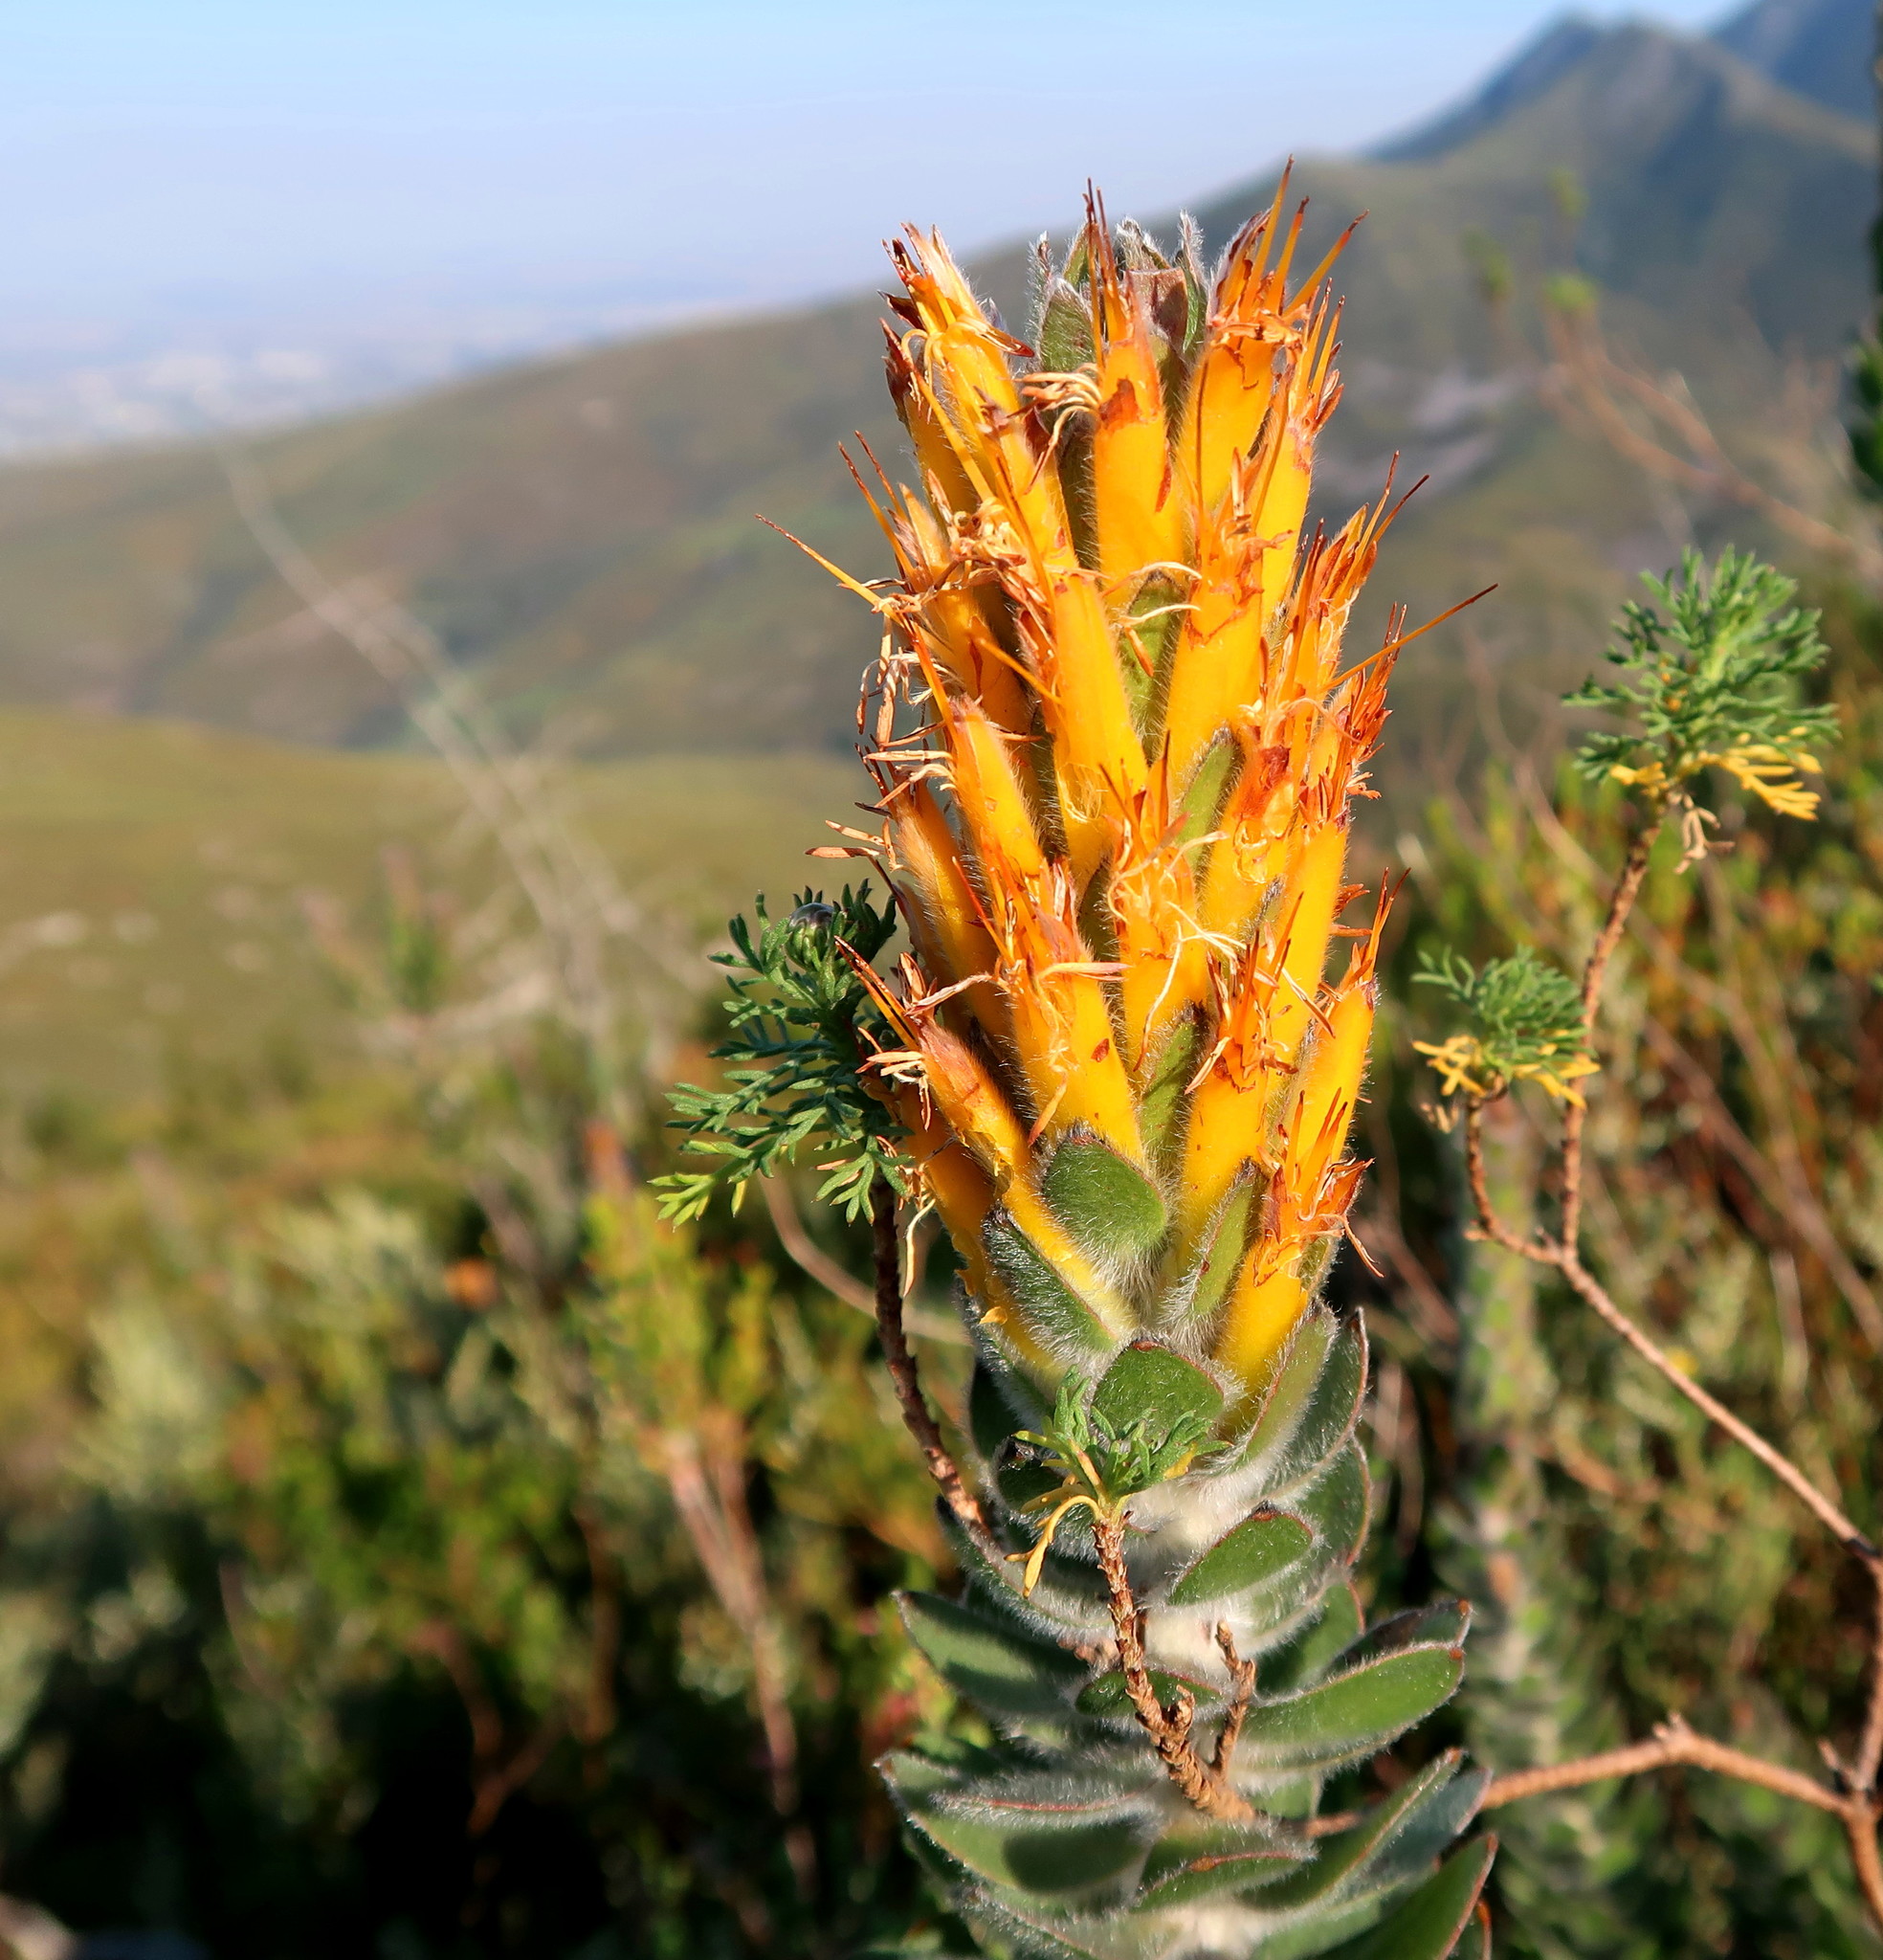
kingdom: Plantae
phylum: Tracheophyta
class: Magnoliopsida
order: Proteales
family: Proteaceae
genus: Mimetes
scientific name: Mimetes pauciflora
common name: Three-flowered pagoda
